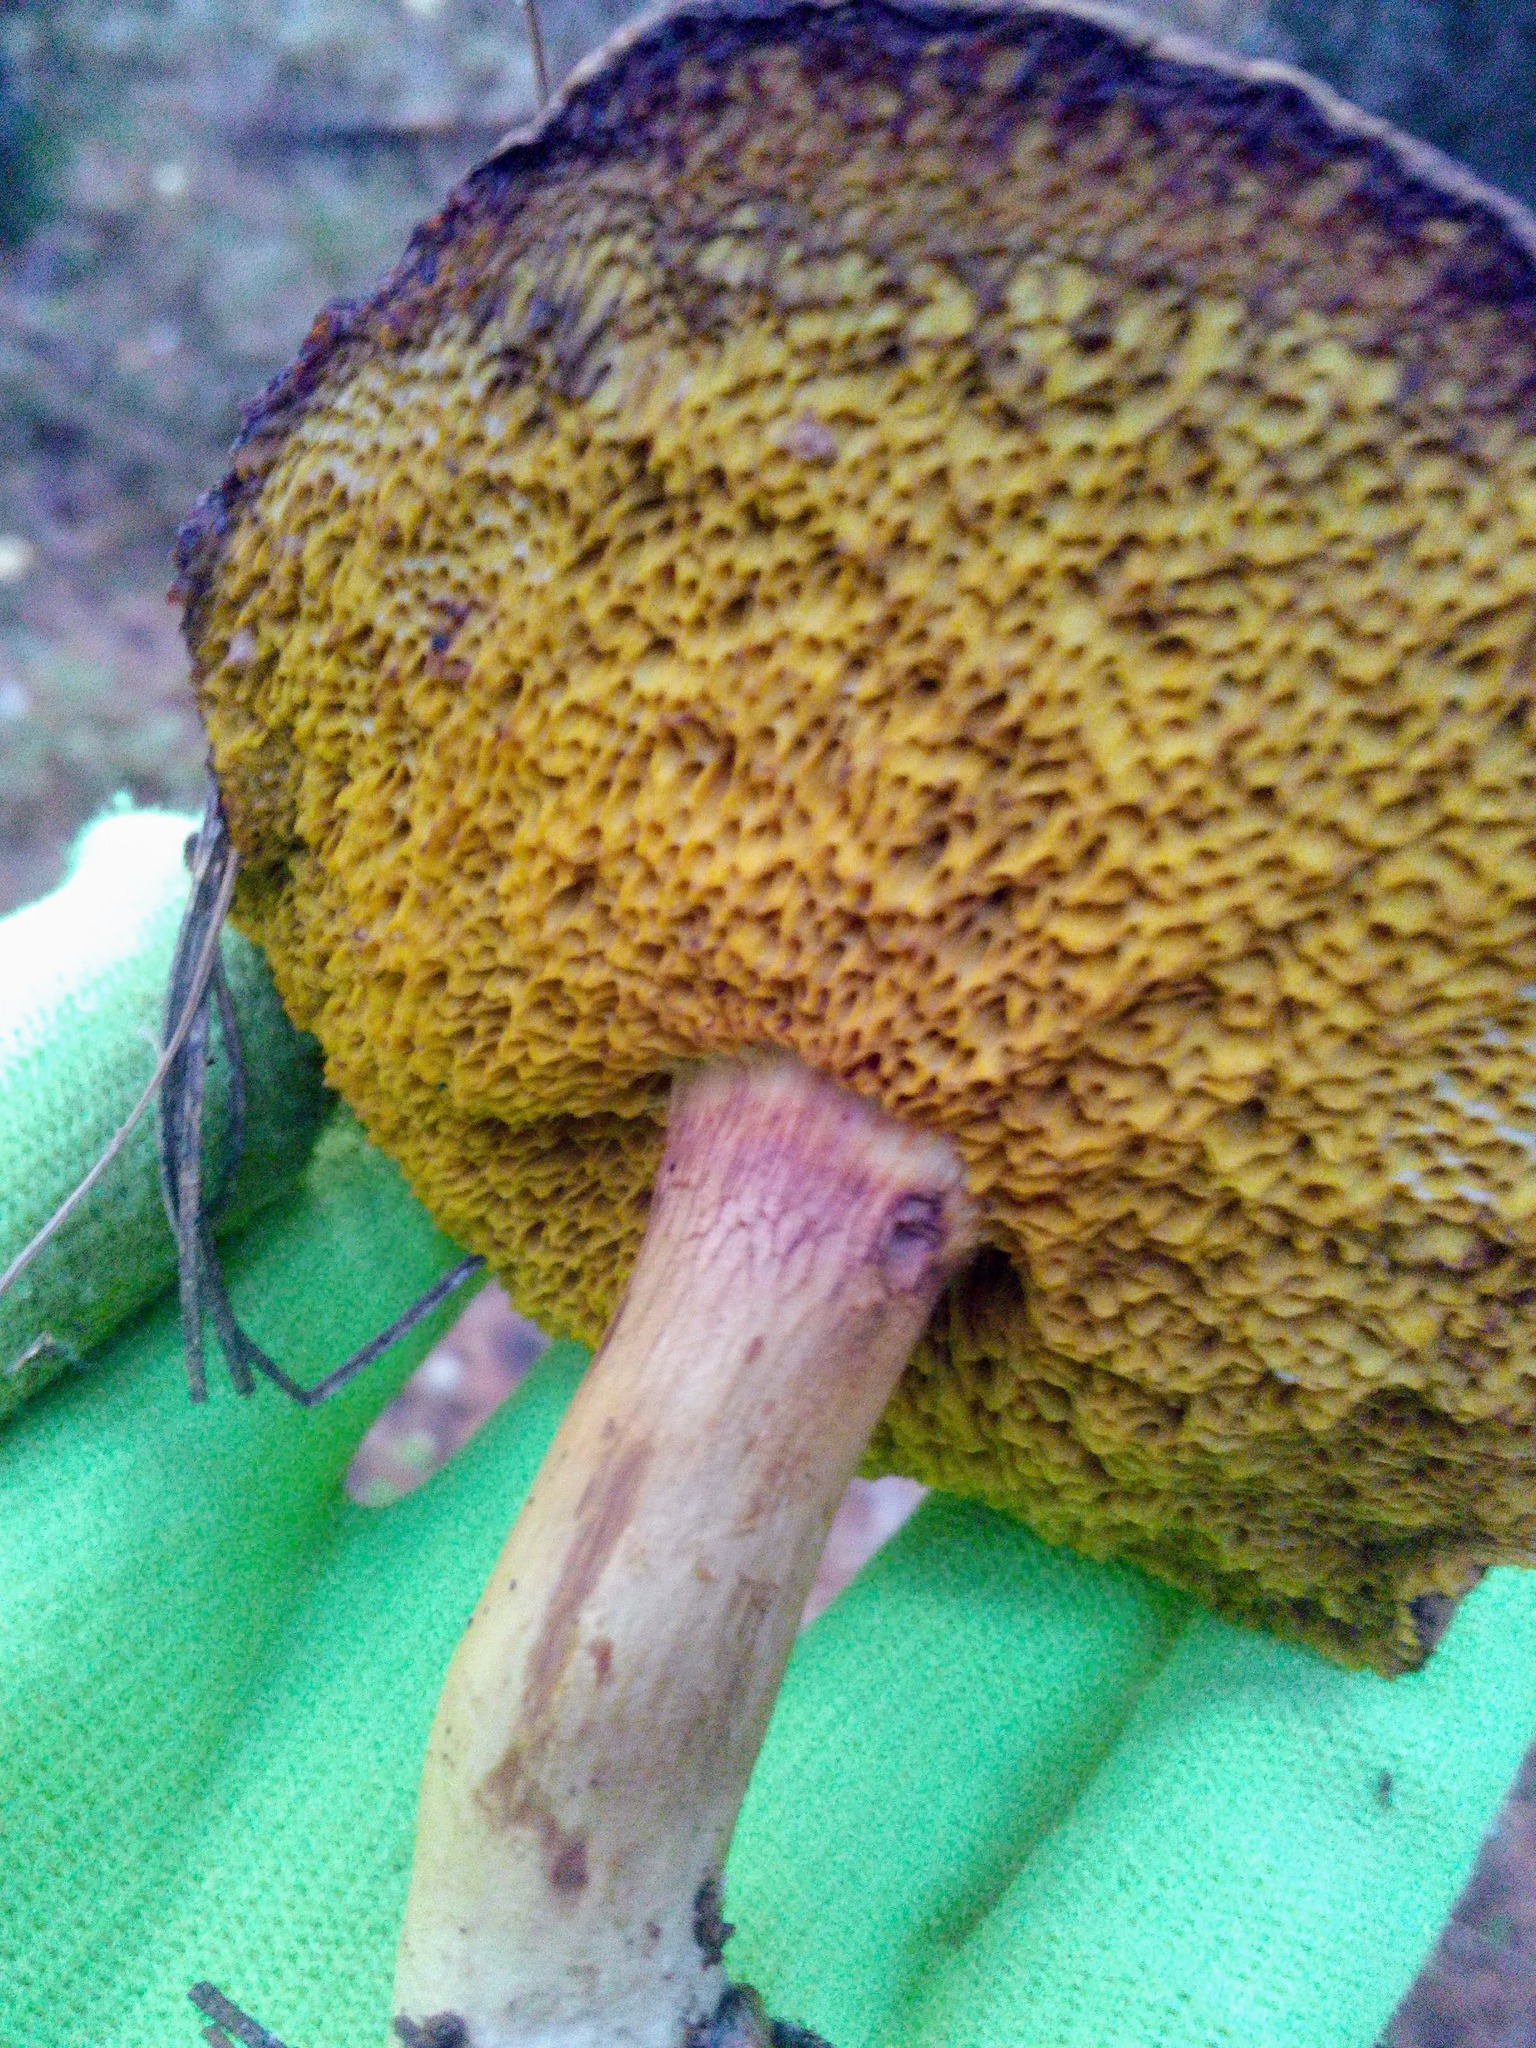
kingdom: Fungi
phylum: Basidiomycota
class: Agaricomycetes
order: Boletales
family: Boletaceae
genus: Xerocomus
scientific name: Xerocomus subtomentosus
